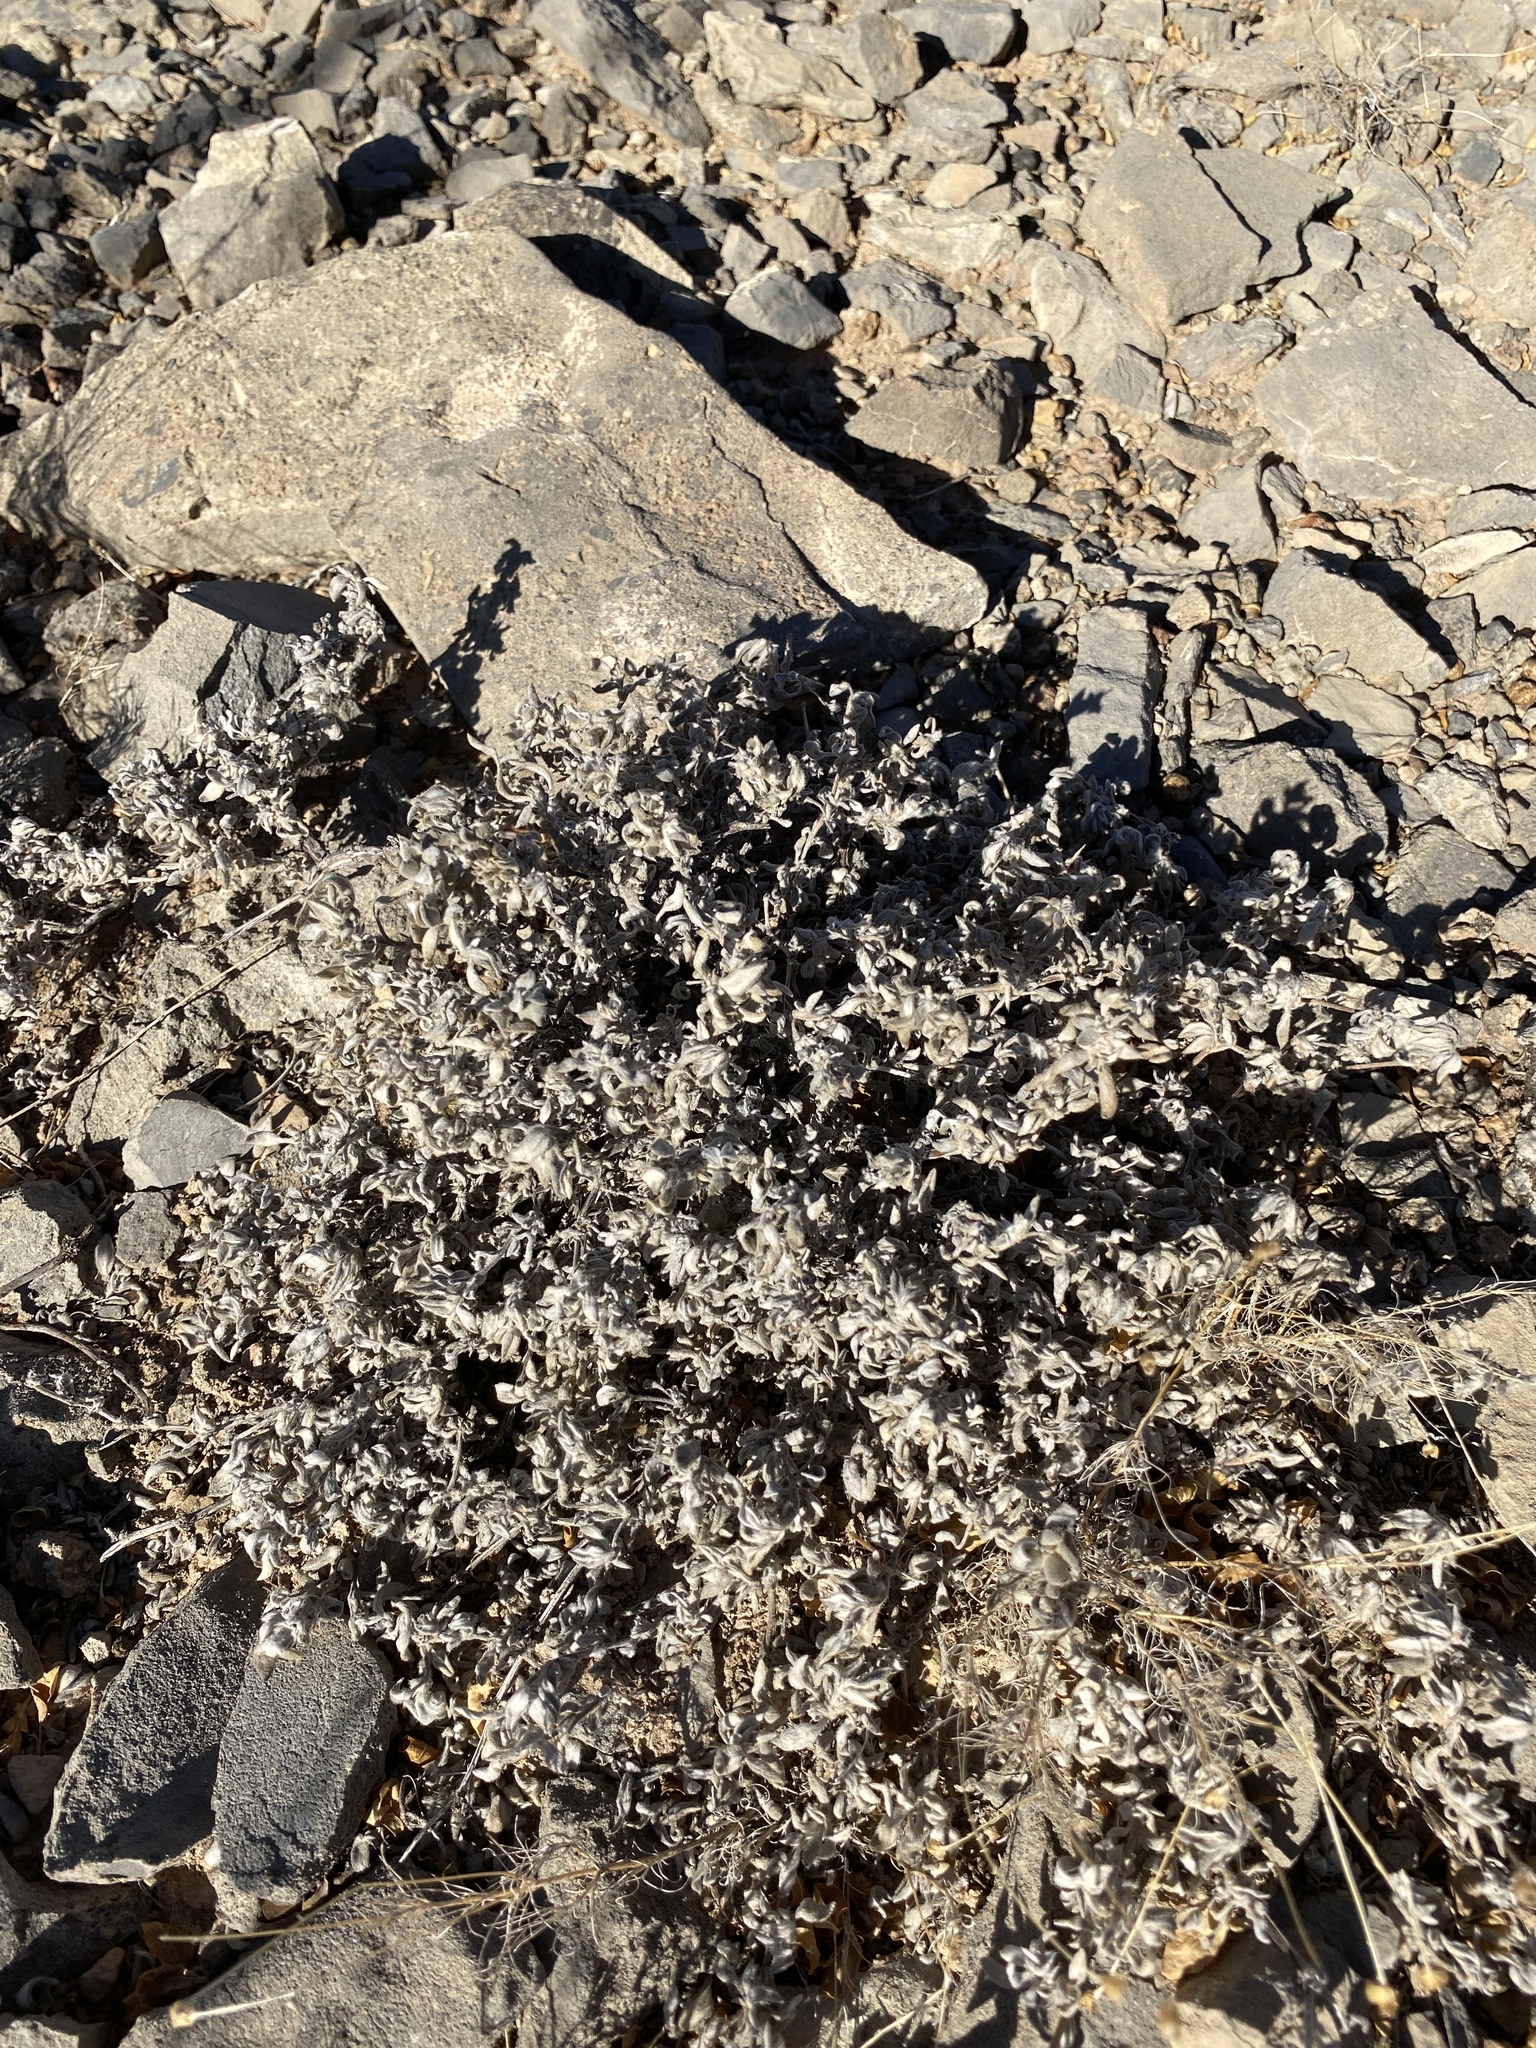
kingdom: Plantae
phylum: Tracheophyta
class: Magnoliopsida
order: Boraginales
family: Ehretiaceae
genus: Tiquilia
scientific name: Tiquilia canescens
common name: Hairy tiquilia
